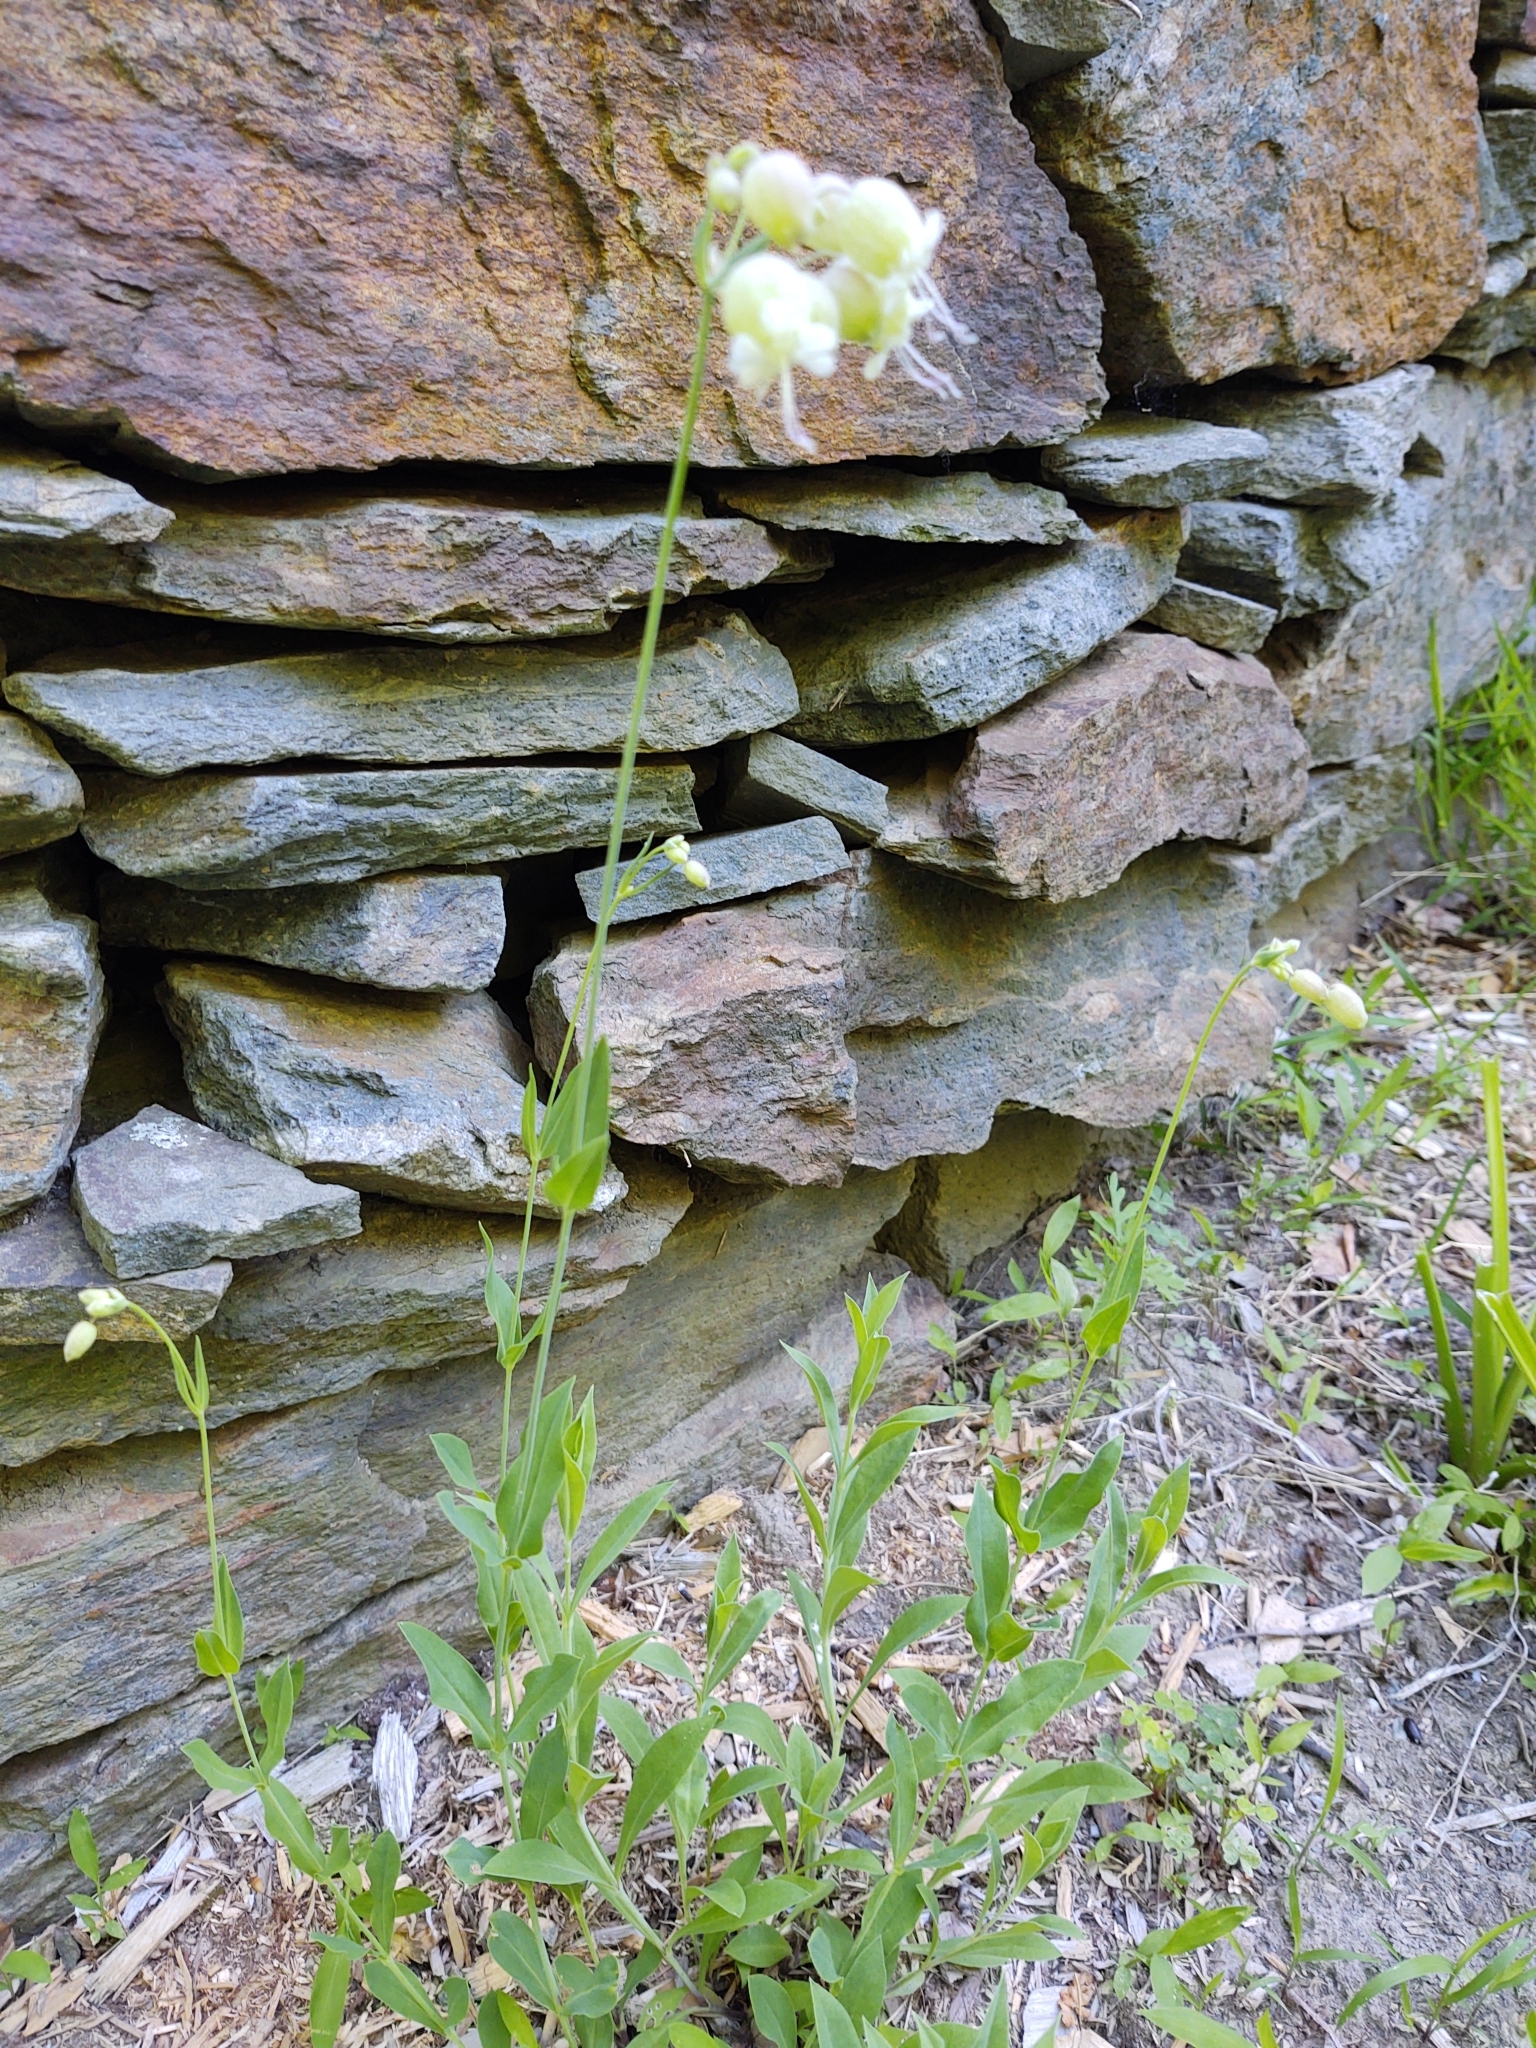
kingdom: Plantae
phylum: Tracheophyta
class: Magnoliopsida
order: Caryophyllales
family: Caryophyllaceae
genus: Silene
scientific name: Silene vulgaris
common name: Bladder campion
